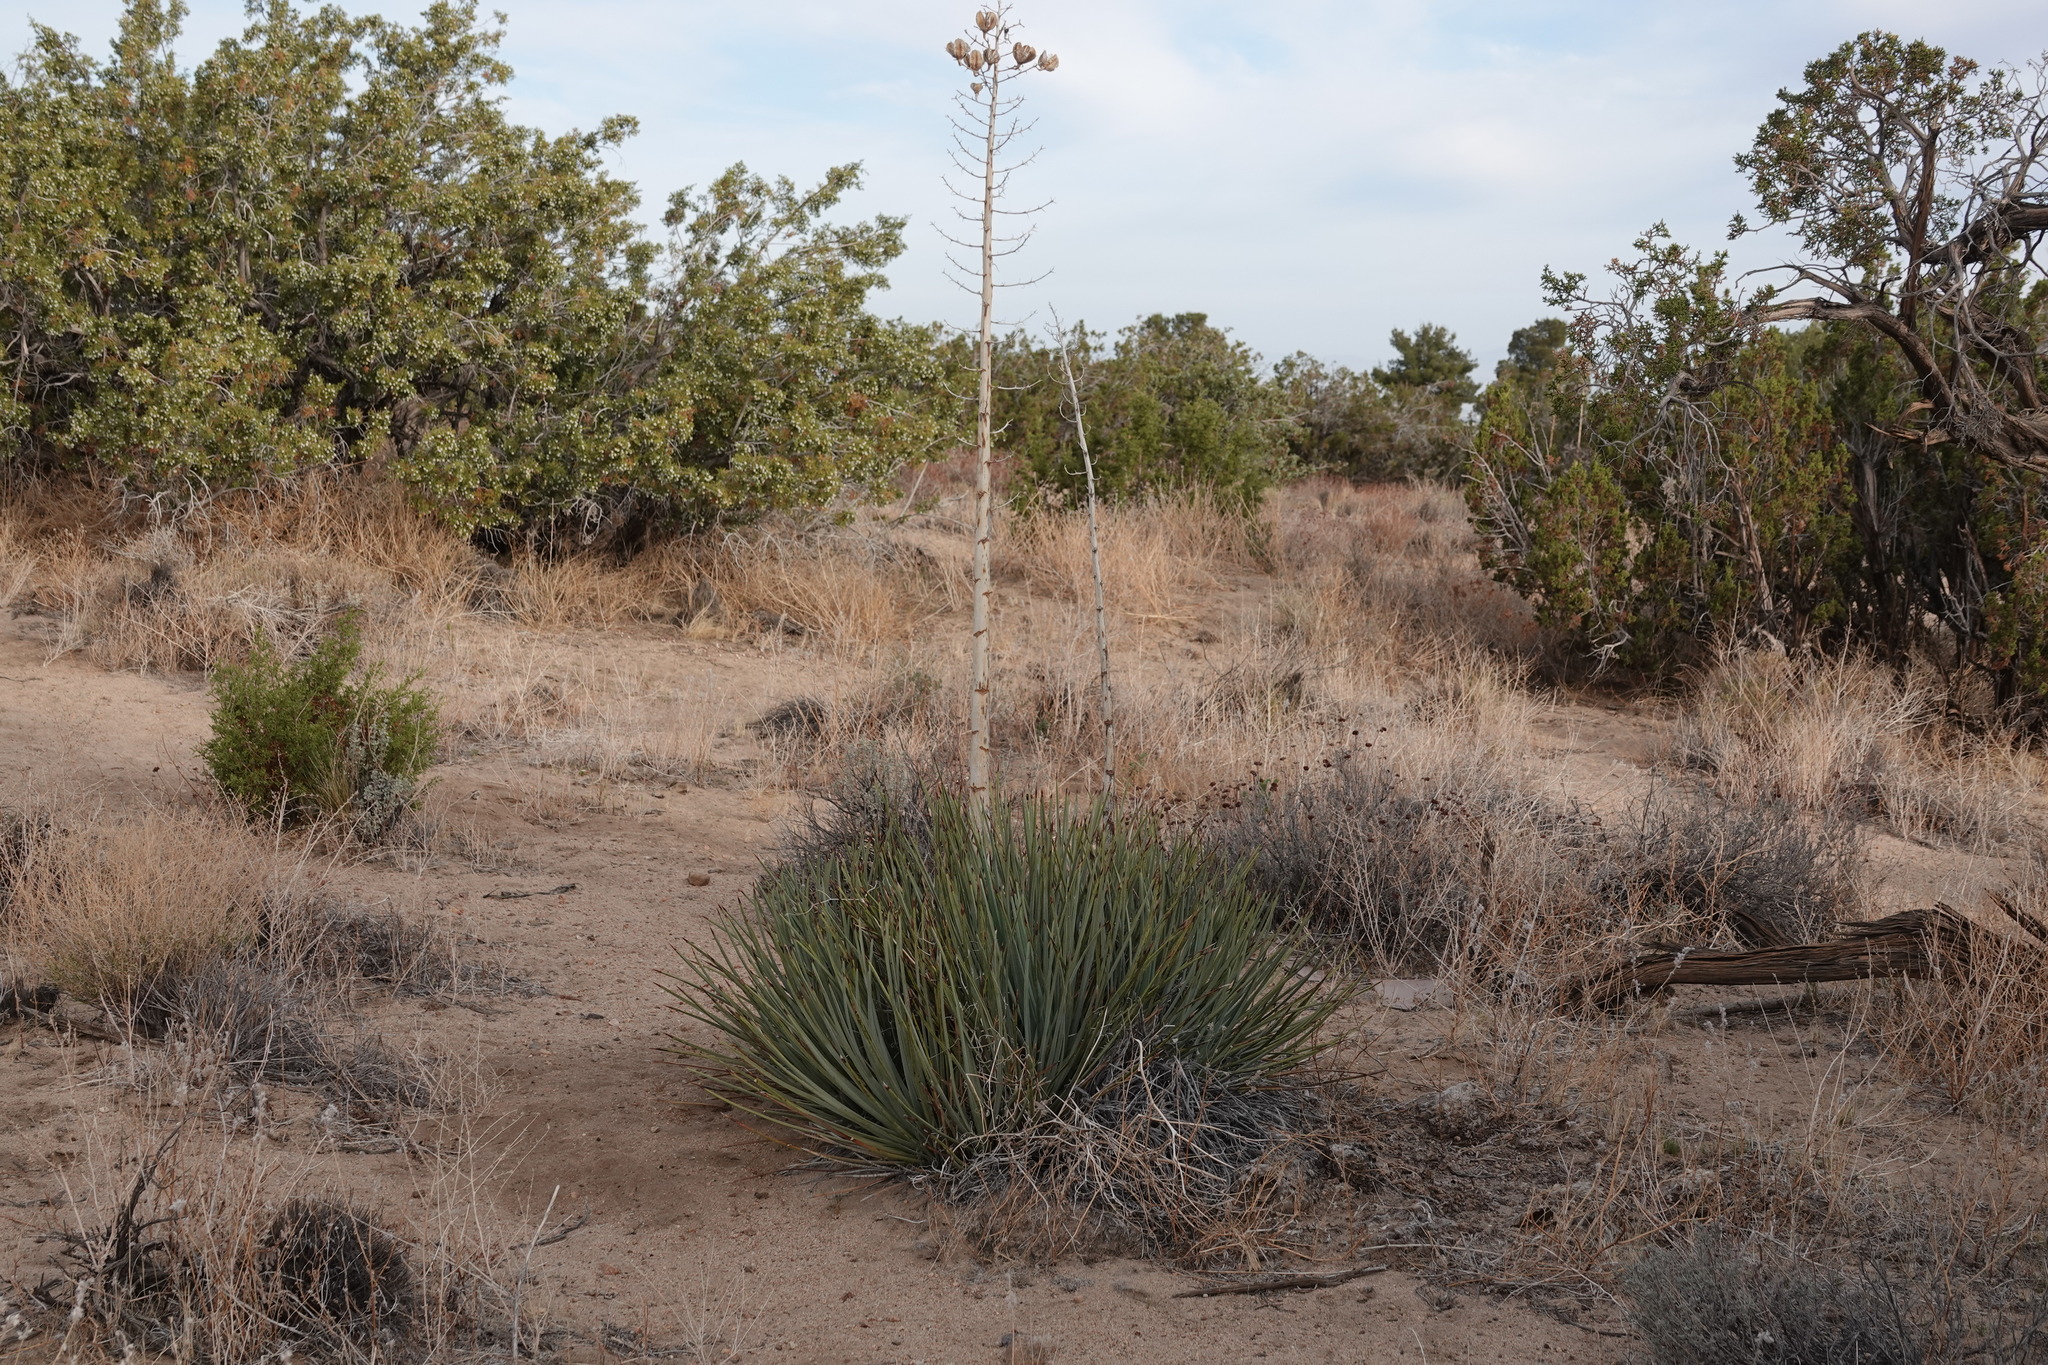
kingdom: Plantae
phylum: Tracheophyta
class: Liliopsida
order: Asparagales
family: Asparagaceae
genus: Hesperoyucca
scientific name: Hesperoyucca whipplei
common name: Our lord's-candle
